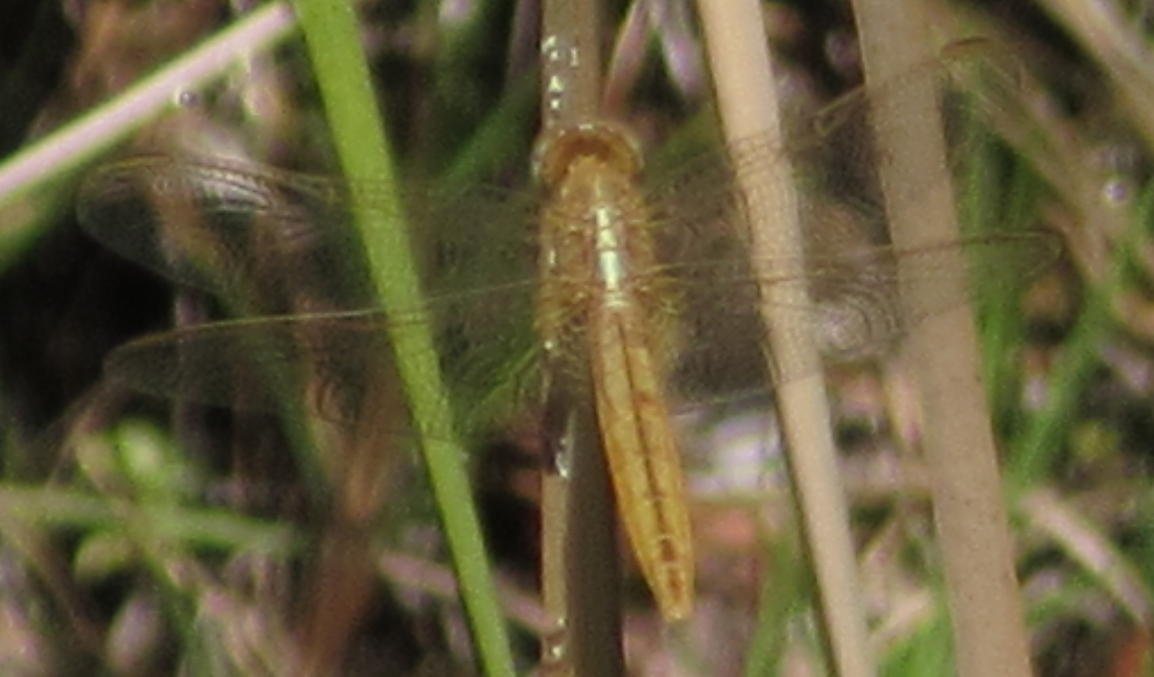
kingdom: Animalia
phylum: Arthropoda
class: Insecta
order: Odonata
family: Libellulidae
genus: Crocothemis
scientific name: Crocothemis erythraea
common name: Scarlet dragonfly
